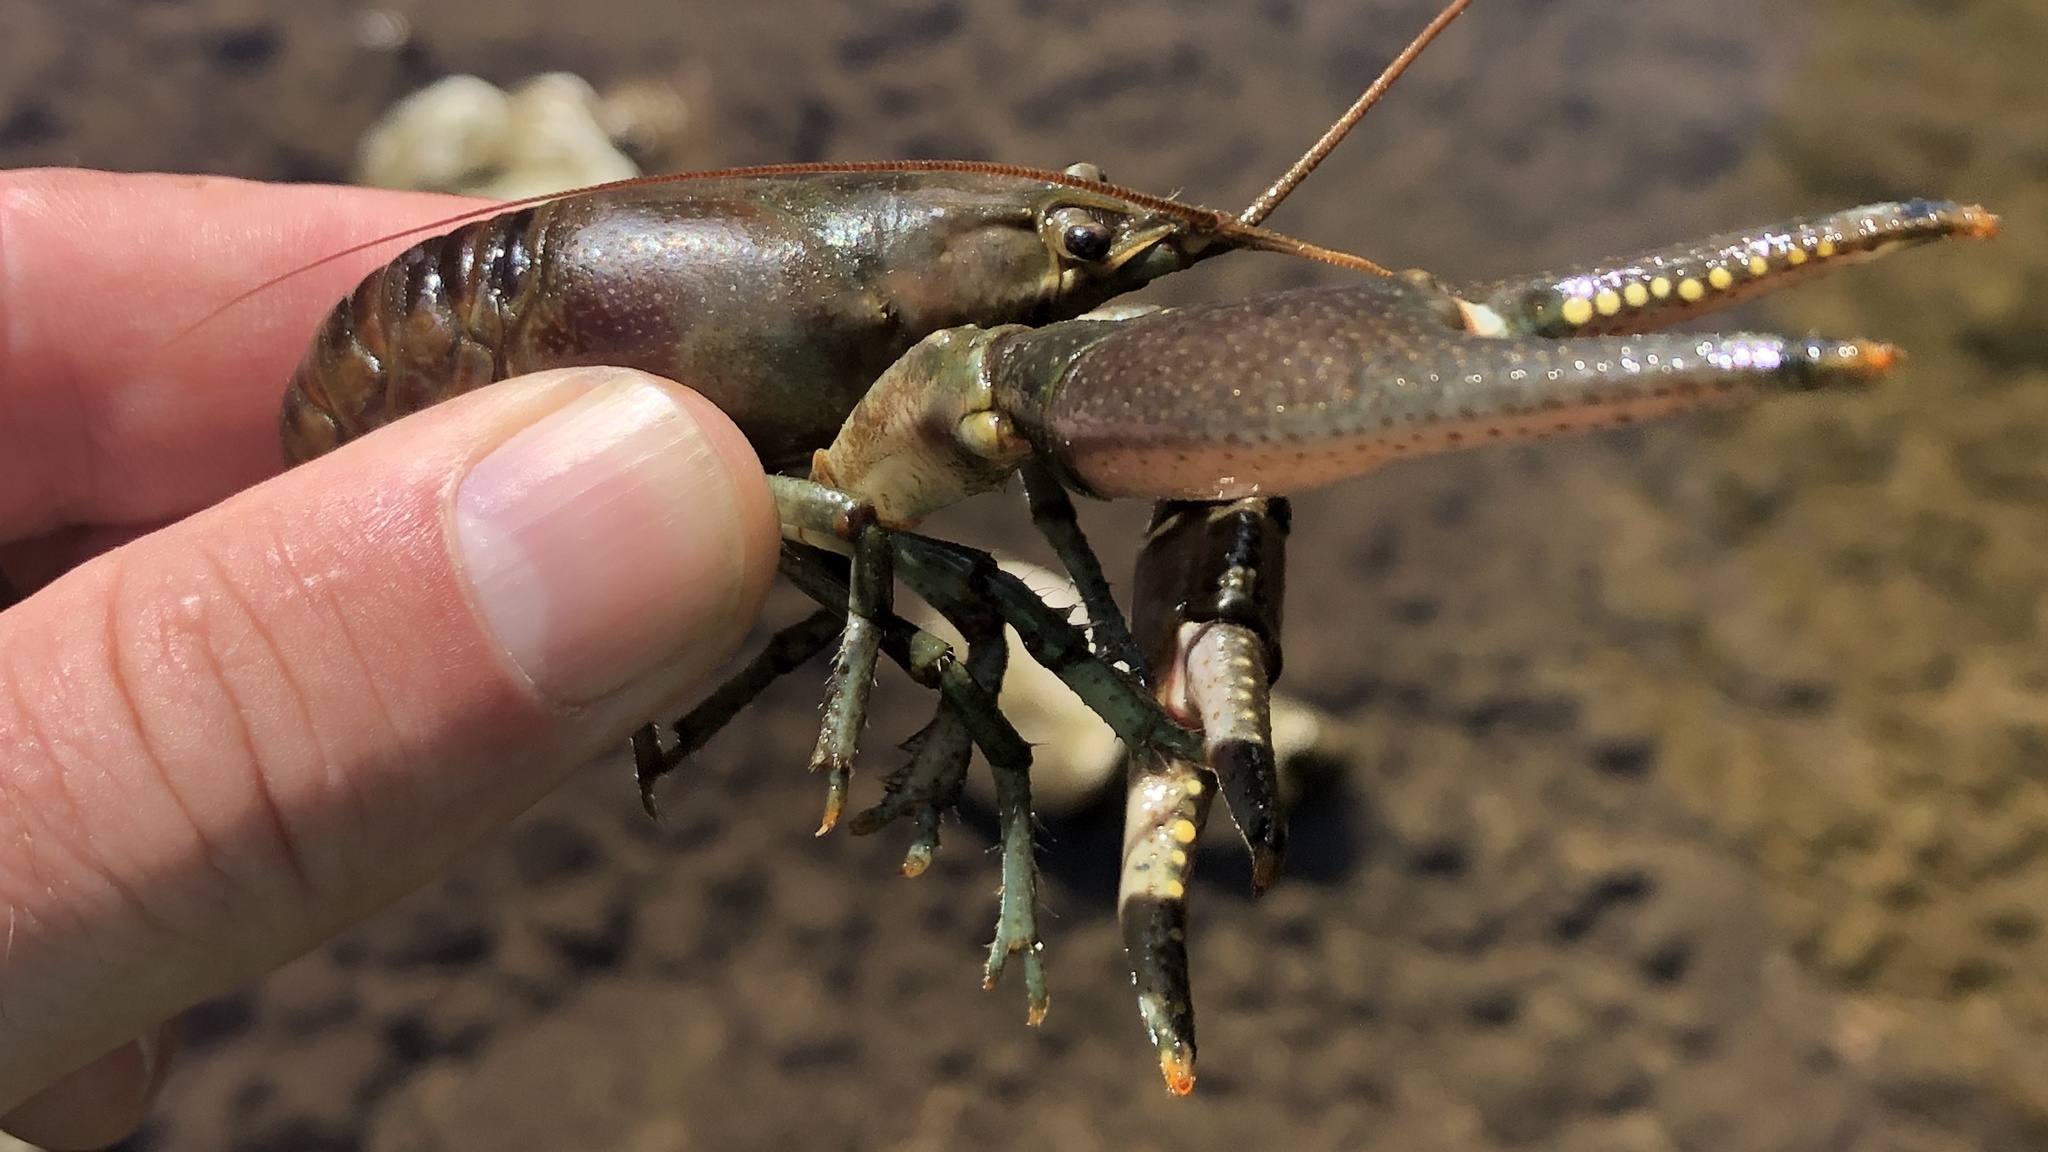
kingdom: Animalia
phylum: Arthropoda
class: Malacostraca
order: Decapoda
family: Cambaridae
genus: Faxonius
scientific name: Faxonius rusticus
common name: Rusty crayfish
